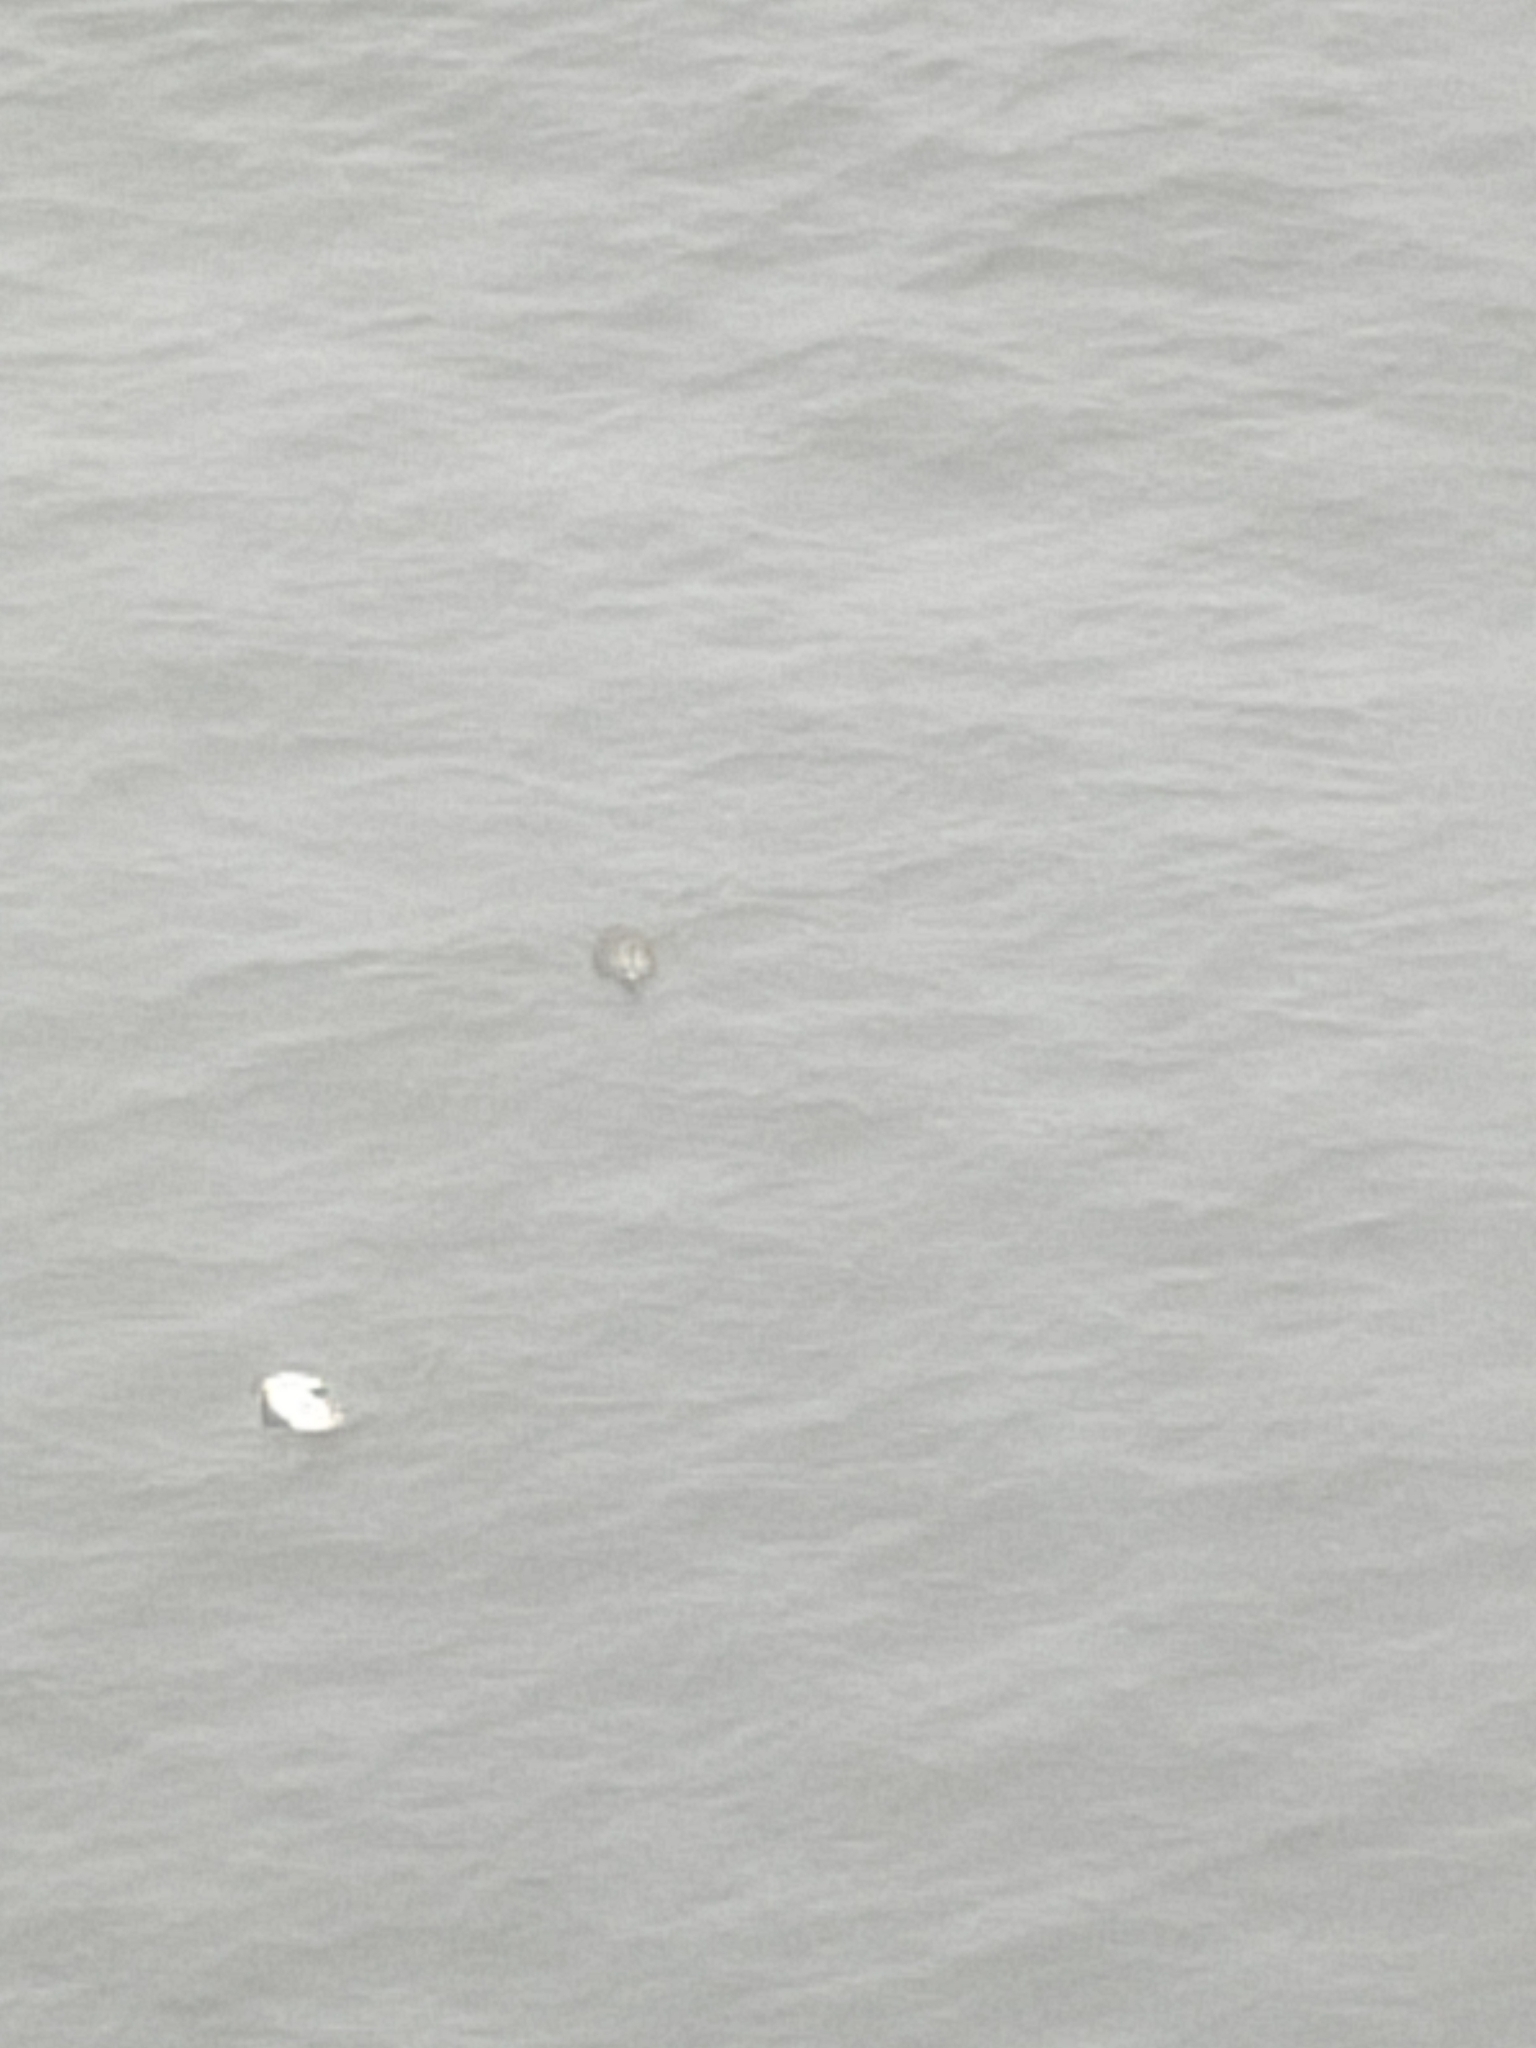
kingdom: Animalia
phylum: Chordata
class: Aves
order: Anseriformes
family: Anatidae
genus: Somateria
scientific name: Somateria mollissima
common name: Common eider
